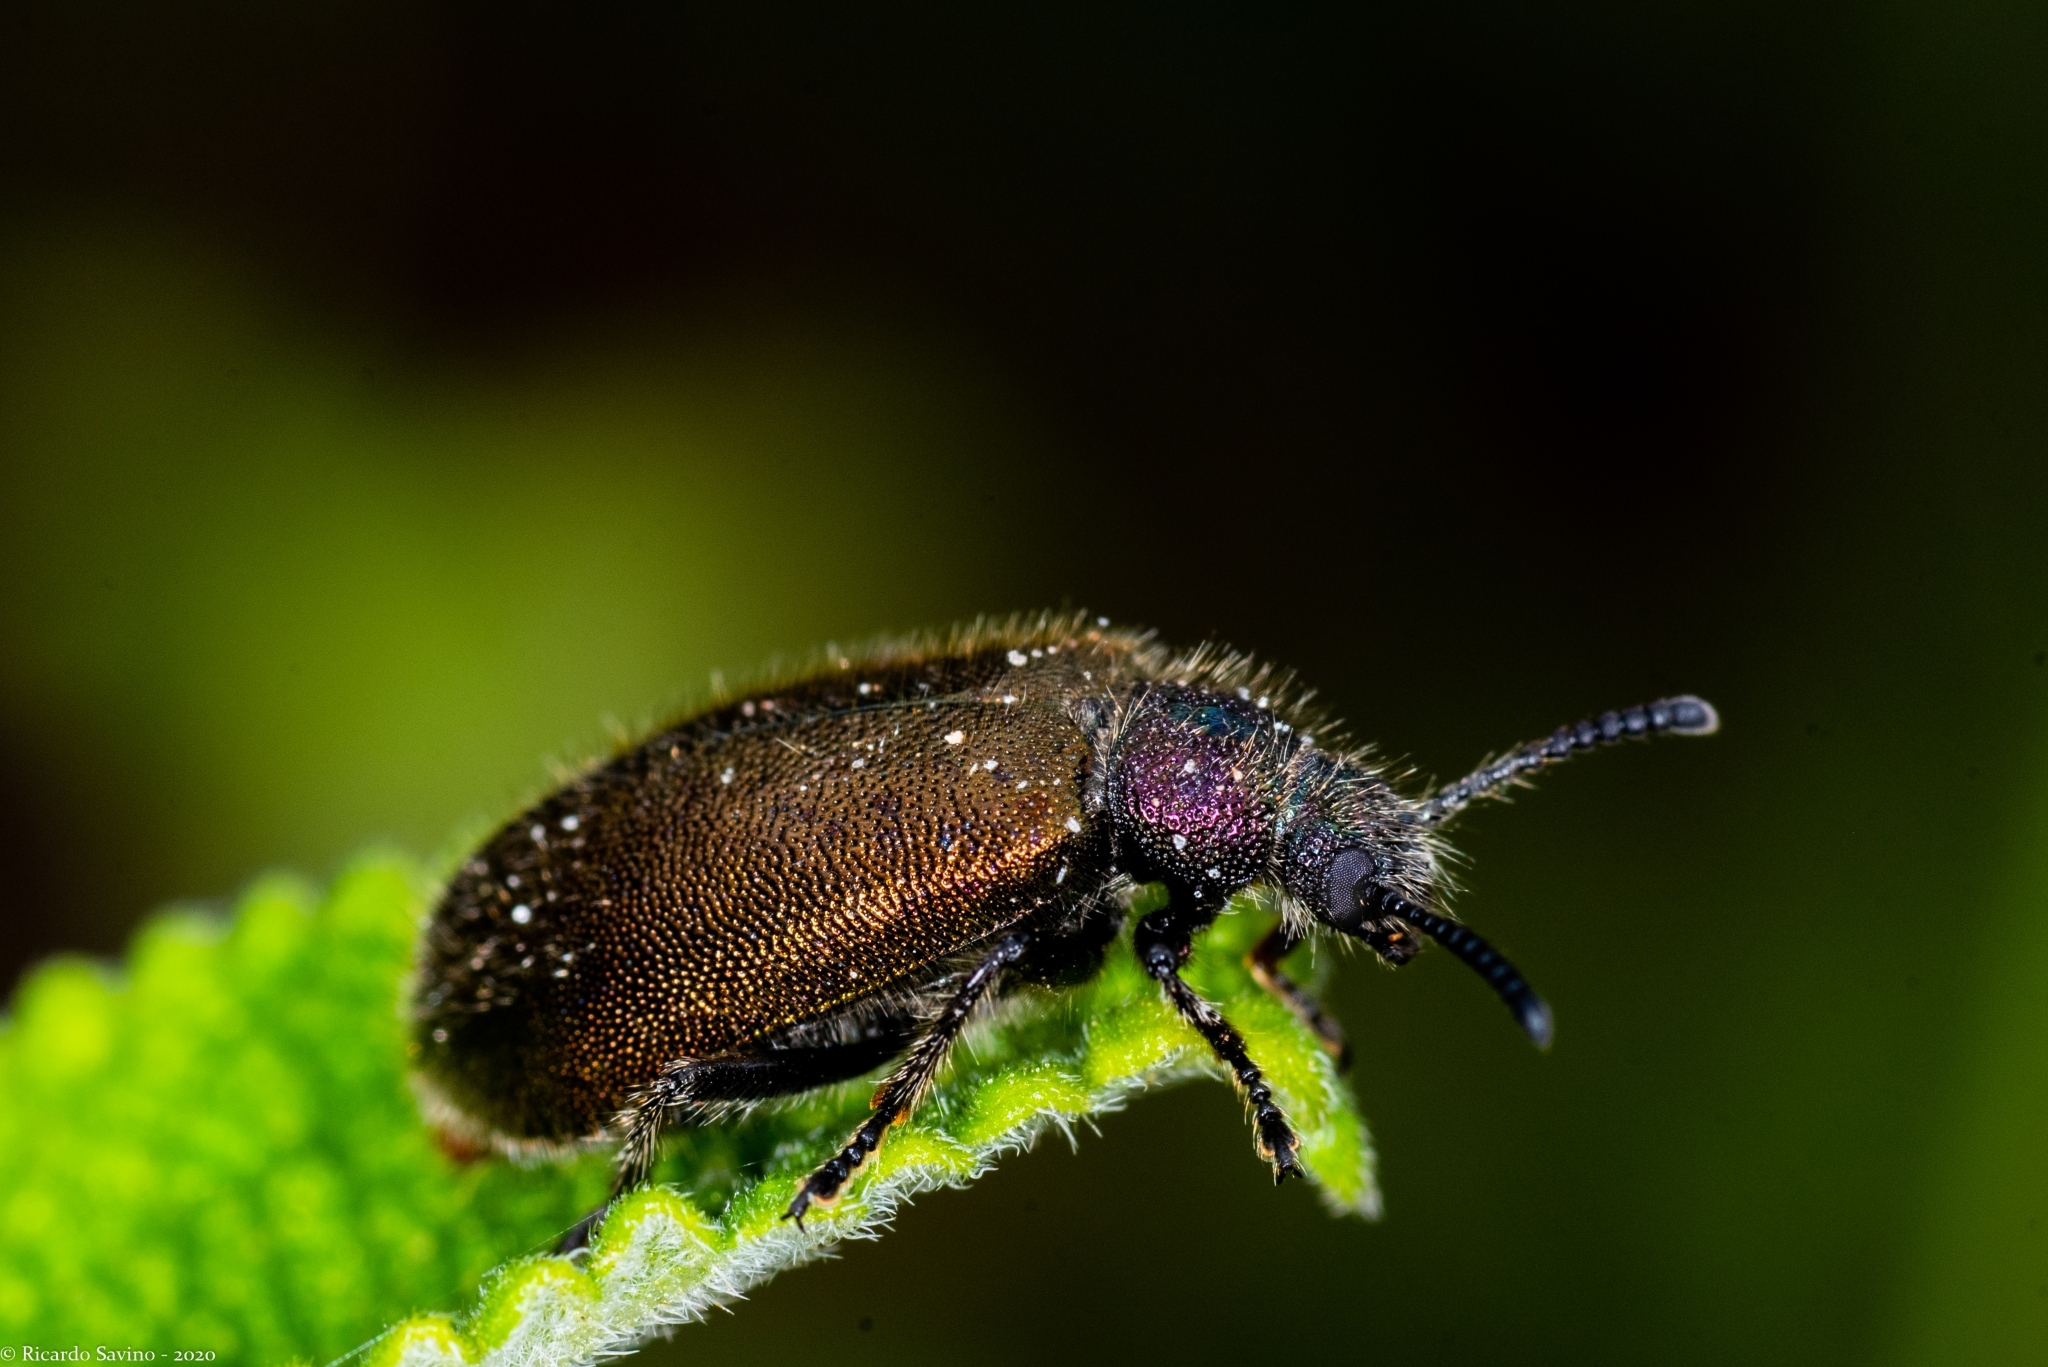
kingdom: Animalia
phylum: Arthropoda
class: Insecta
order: Coleoptera
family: Tenebrionidae
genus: Lagria
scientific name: Lagria villosa
